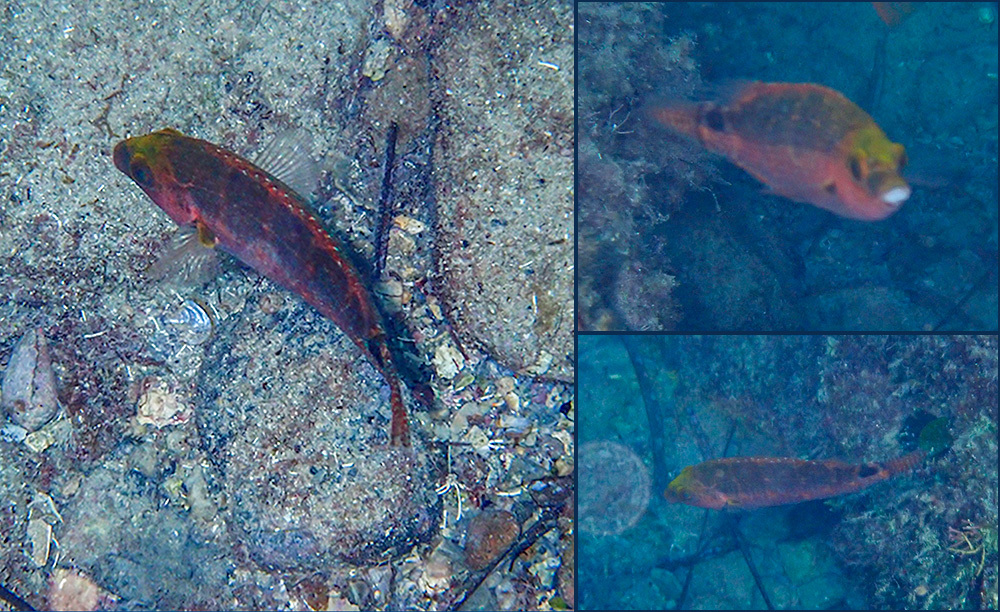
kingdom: Animalia
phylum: Chordata
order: Perciformes
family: Labridae
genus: Symphodus
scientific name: Symphodus mediterraneus
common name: Axillary wrasse
